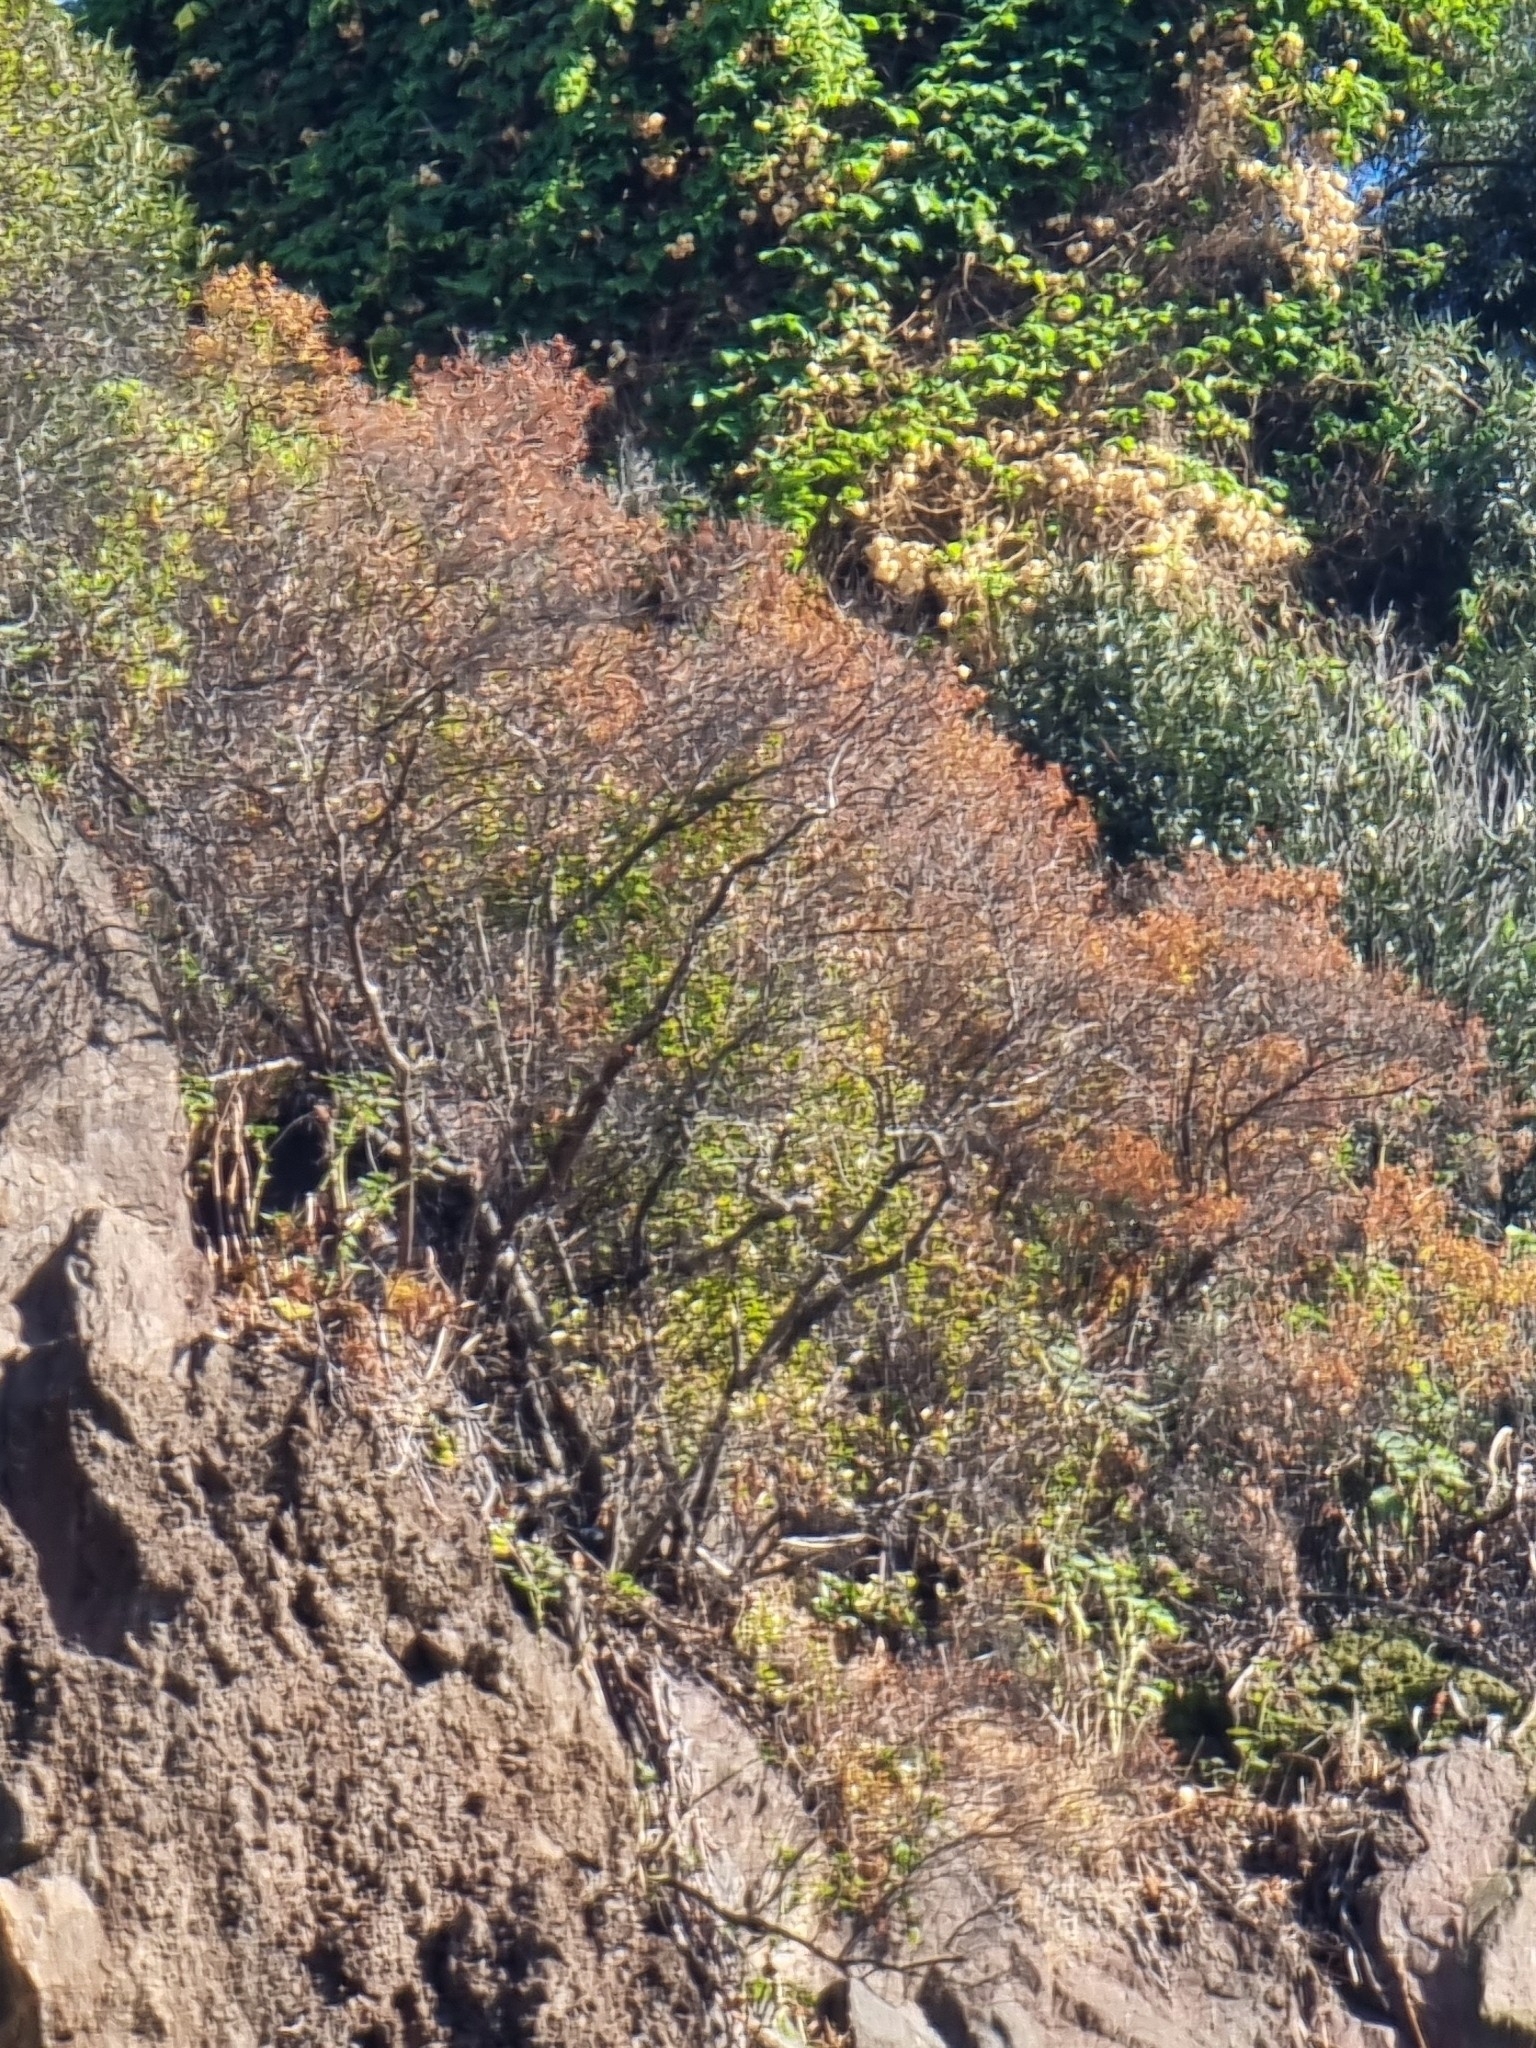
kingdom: Plantae
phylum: Tracheophyta
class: Magnoliopsida
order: Malpighiales
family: Hypericaceae
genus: Hypericum
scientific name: Hypericum canariense
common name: Canary island st. johnswort
